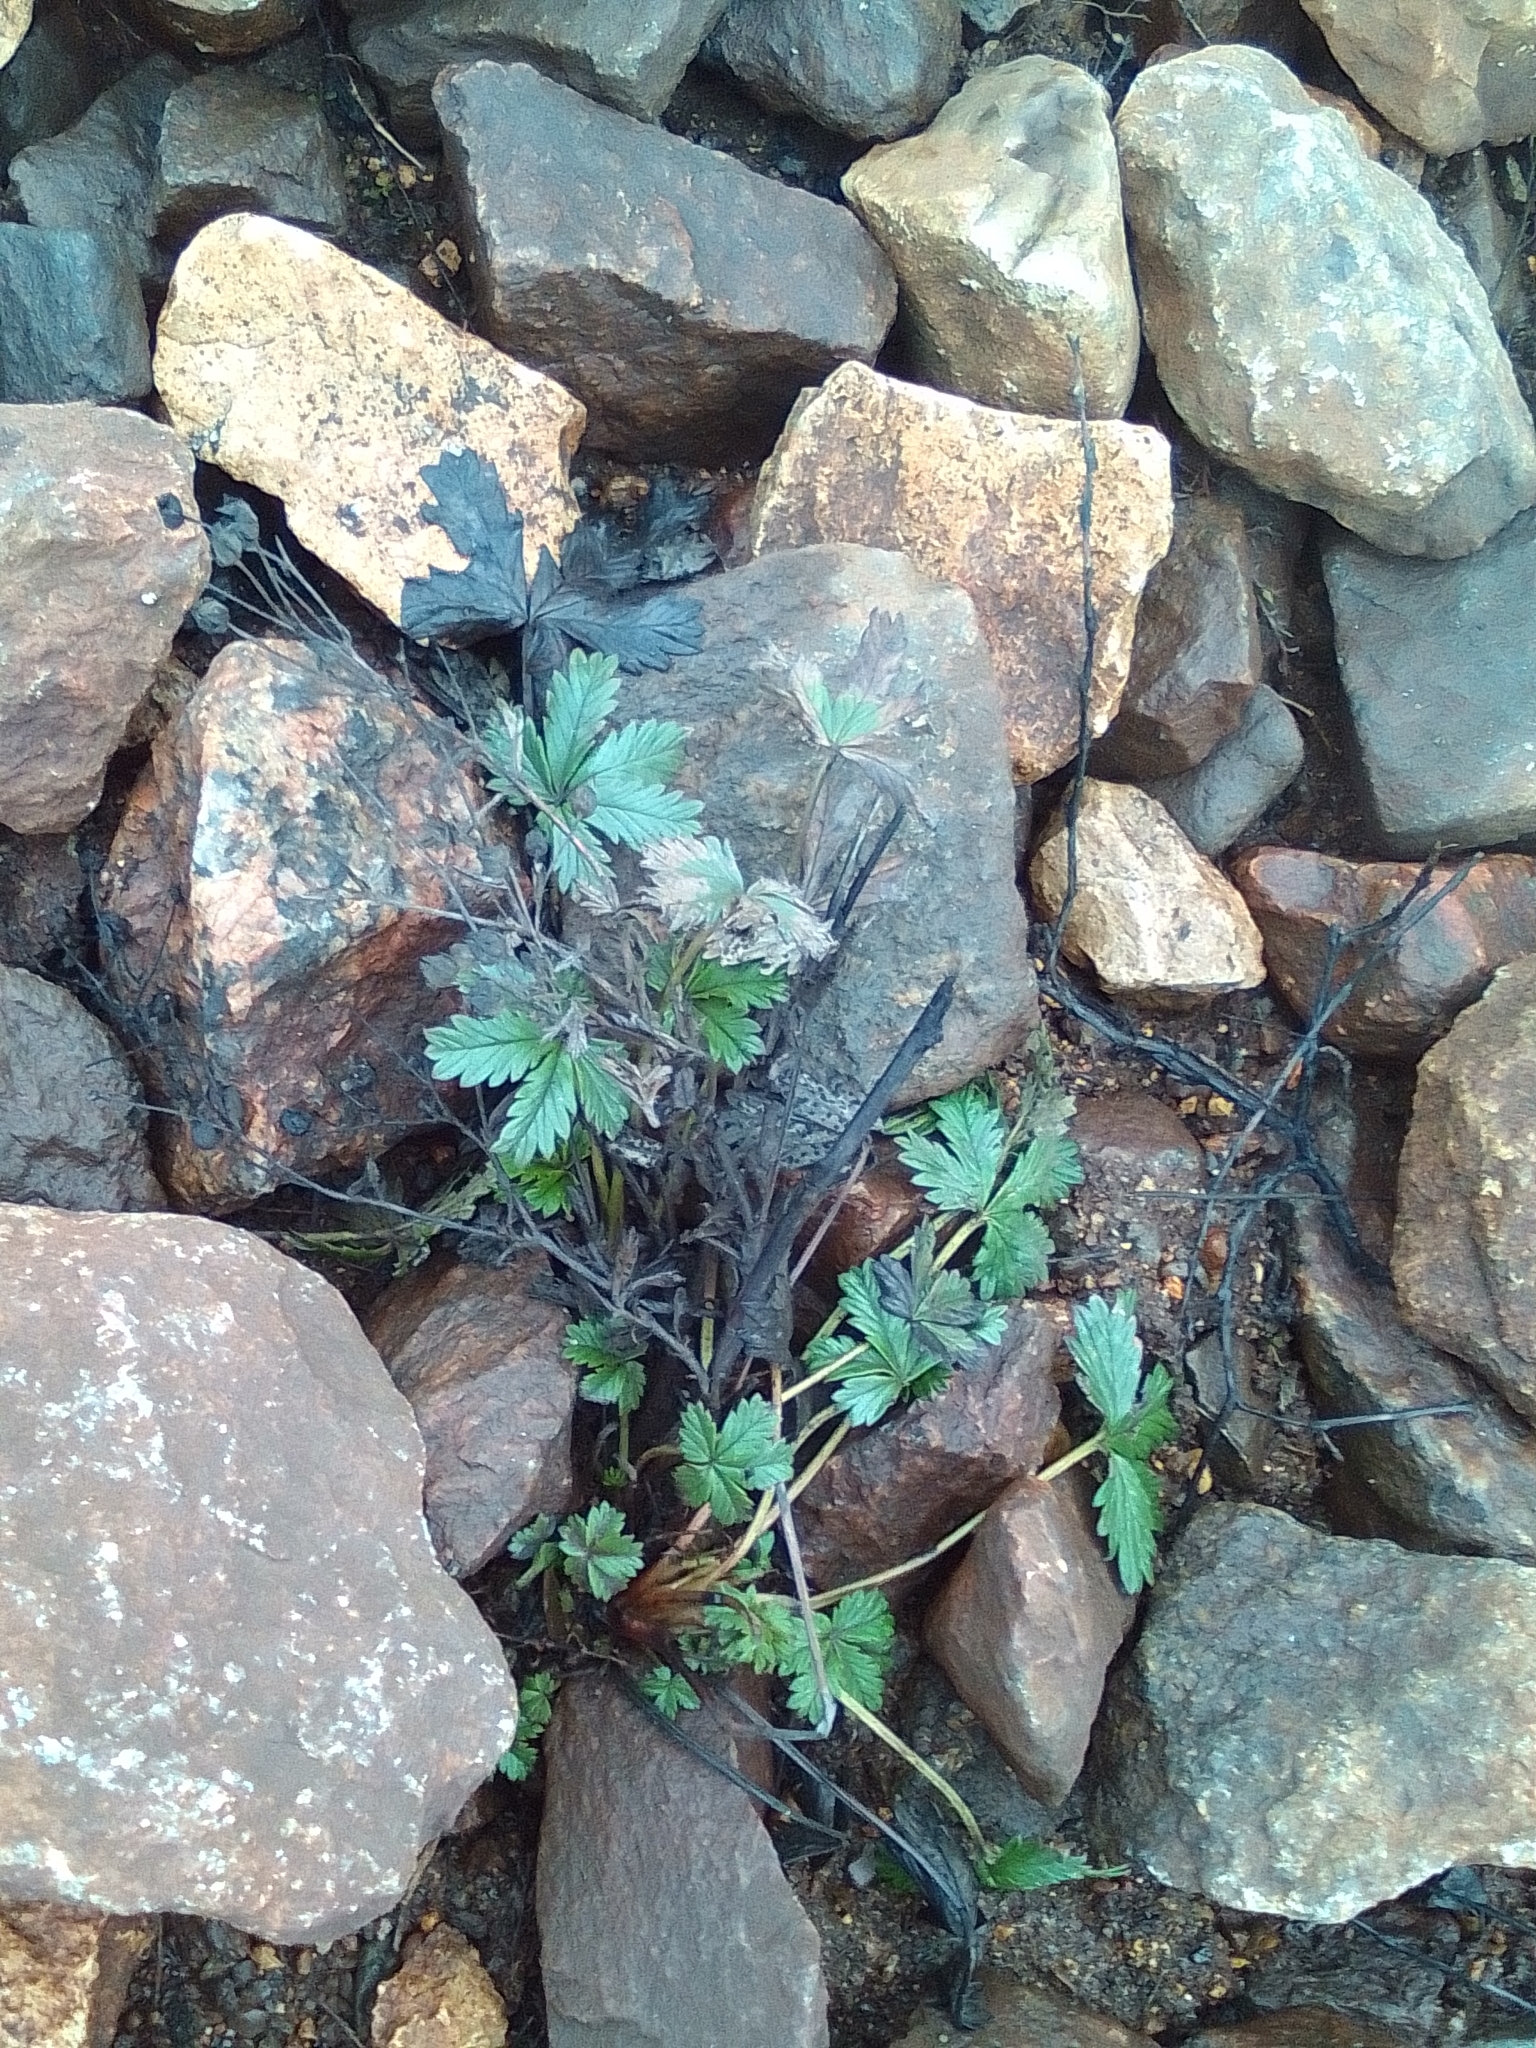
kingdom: Plantae
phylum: Tracheophyta
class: Magnoliopsida
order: Rosales
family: Rosaceae
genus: Potentilla
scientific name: Potentilla argentea
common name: Hoary cinquefoil
